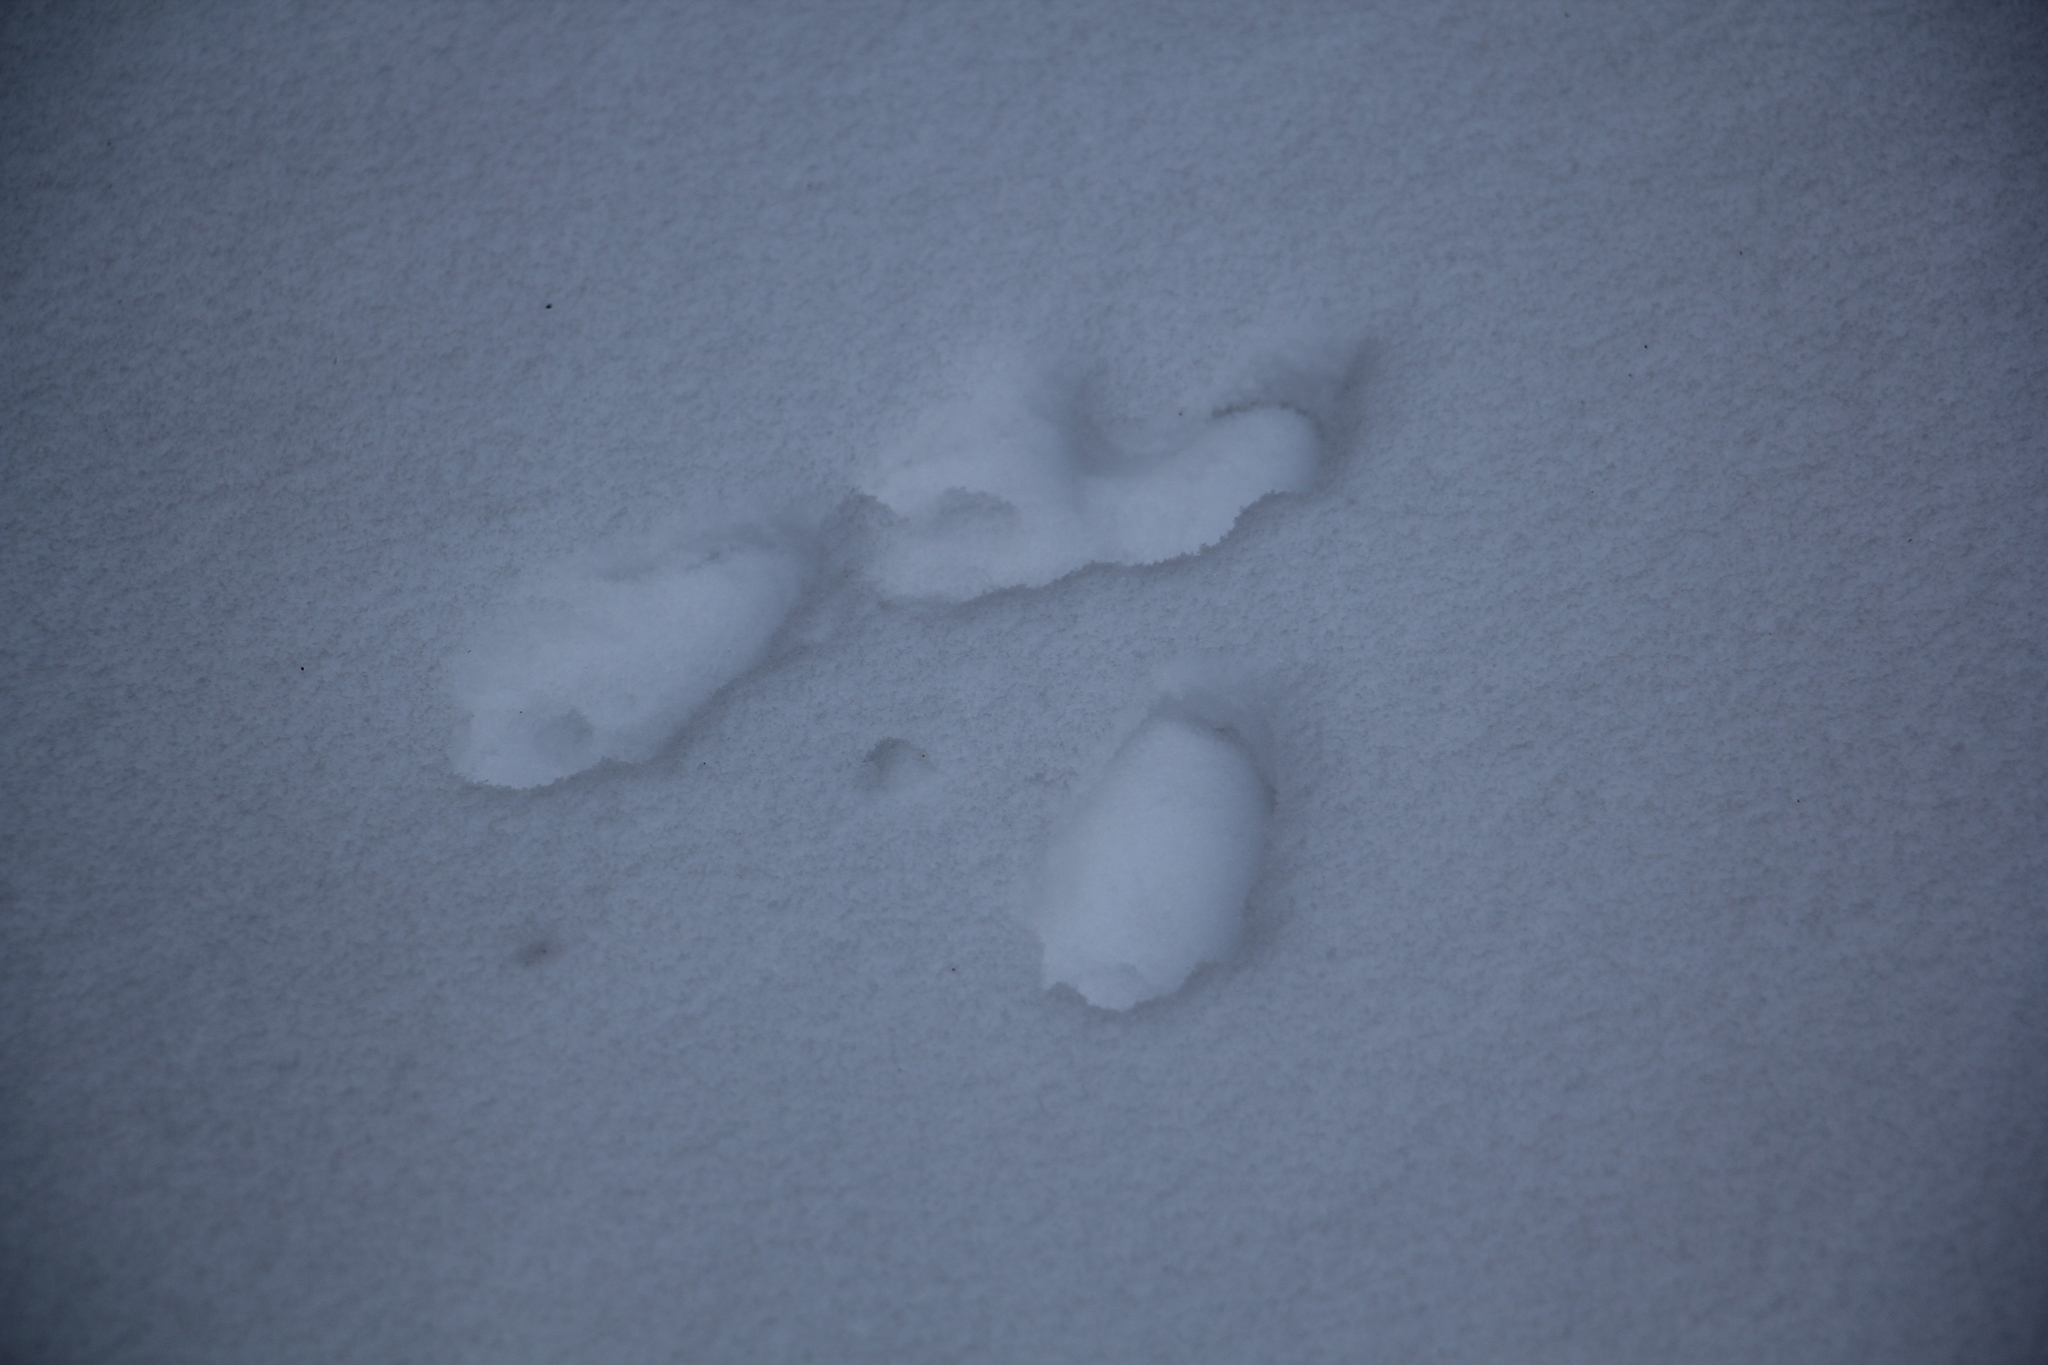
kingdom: Animalia
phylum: Chordata
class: Mammalia
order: Rodentia
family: Sciuridae
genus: Sciurus
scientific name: Sciurus vulgaris
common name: Eurasian red squirrel
